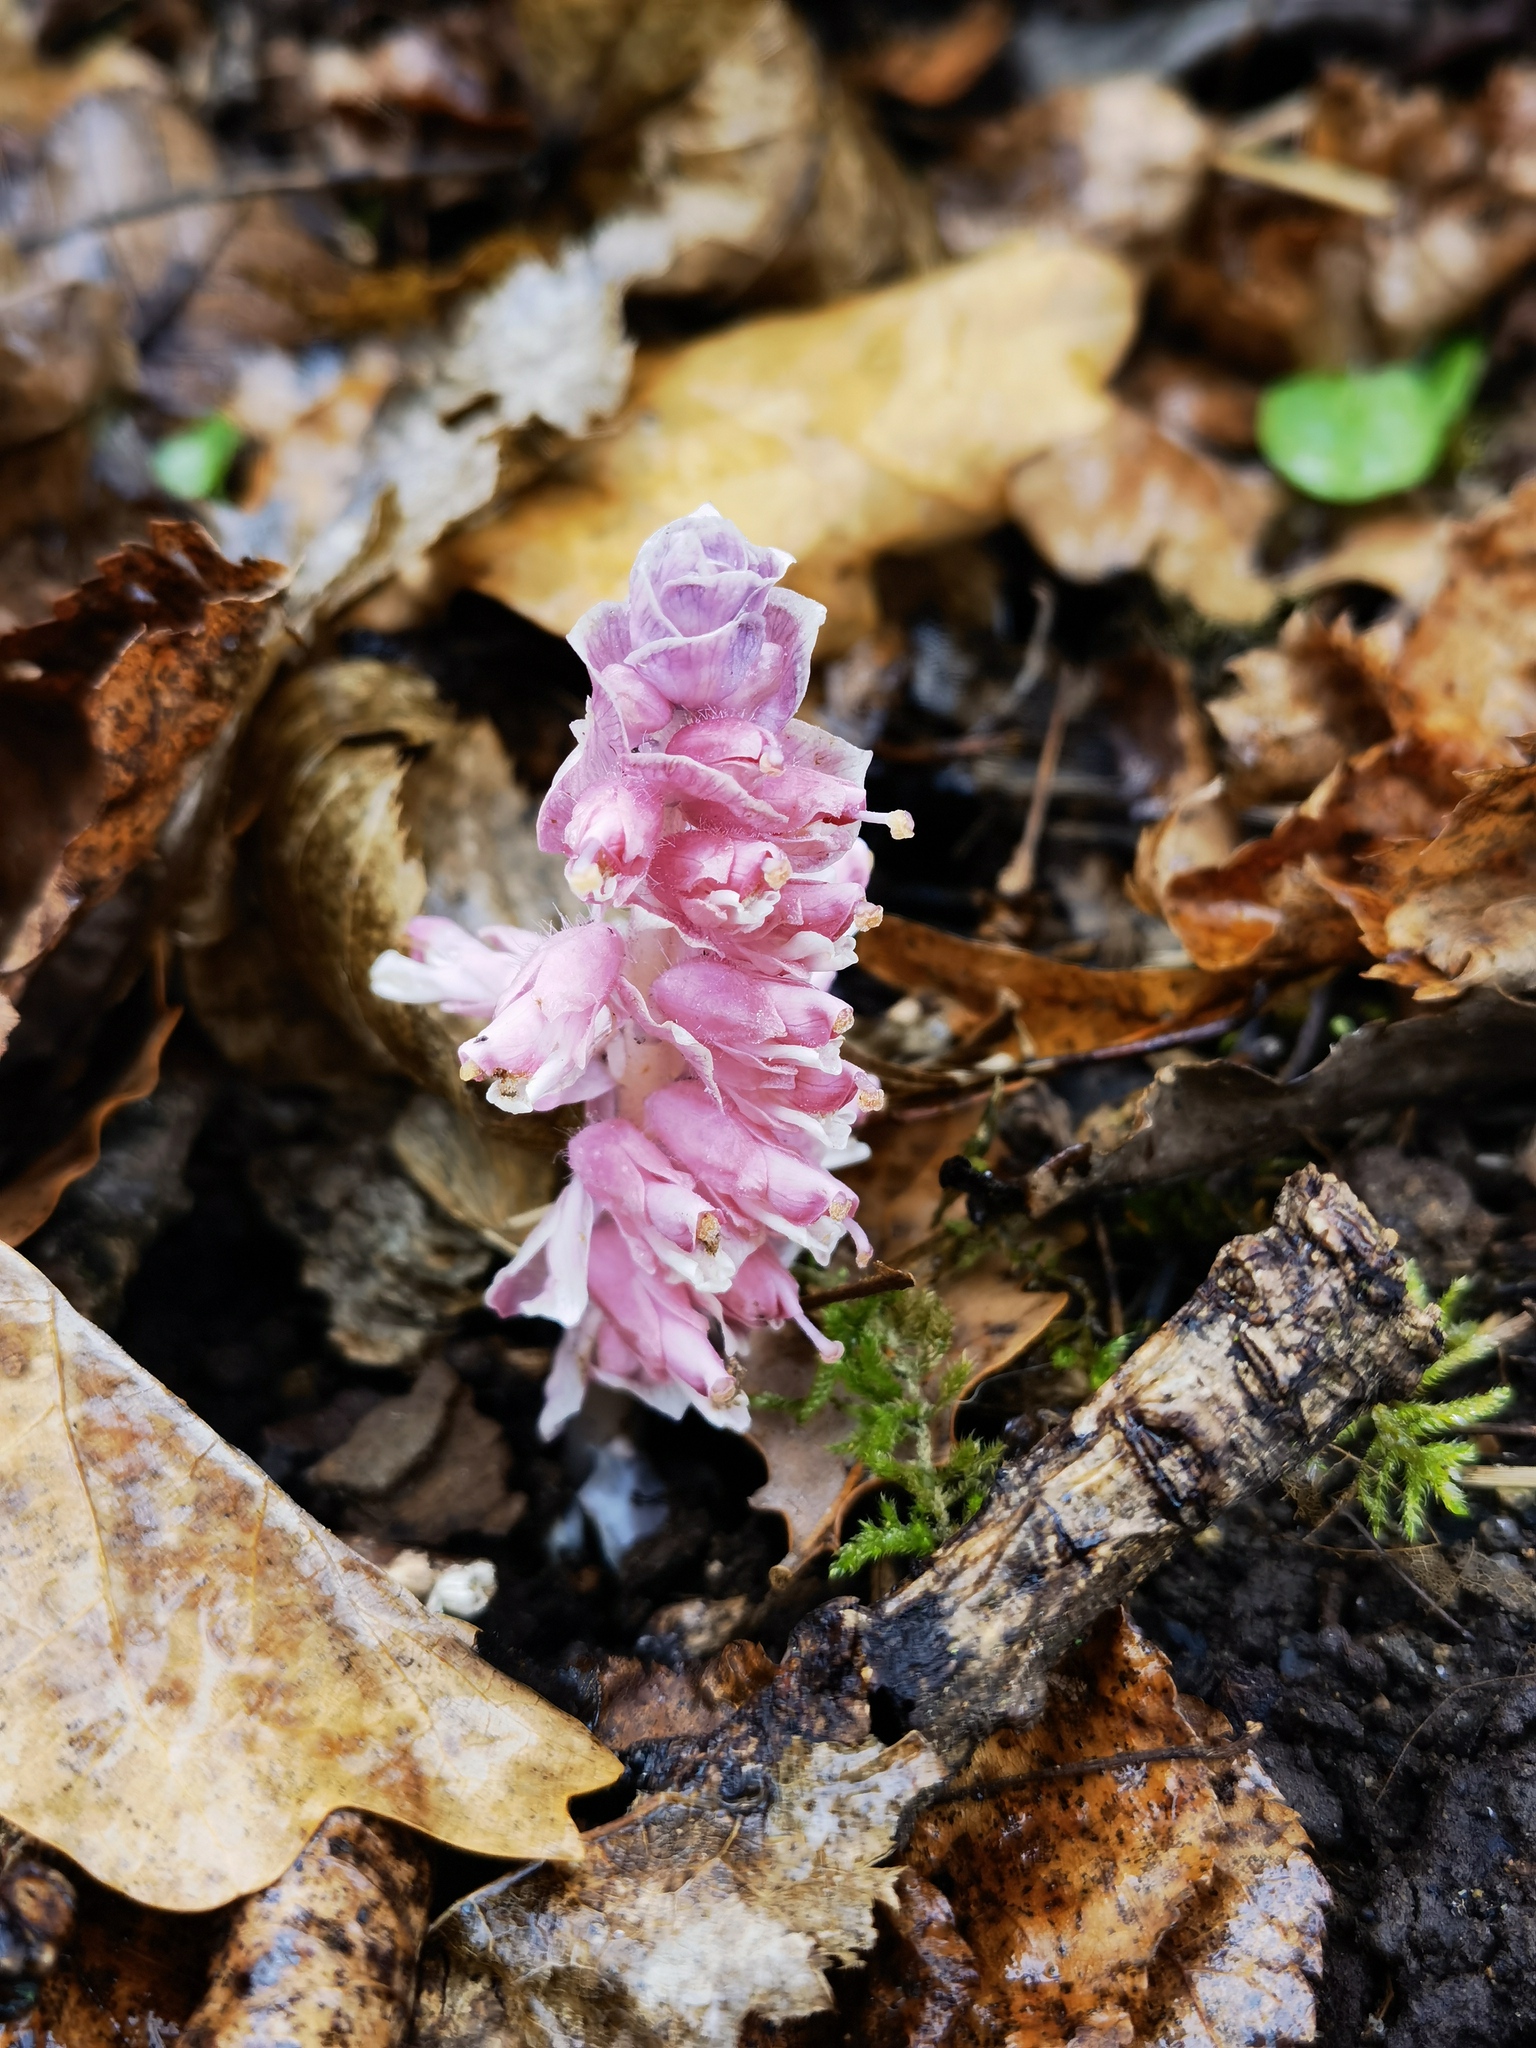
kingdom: Plantae
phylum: Tracheophyta
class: Magnoliopsida
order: Lamiales
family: Orobanchaceae
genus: Lathraea
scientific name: Lathraea squamaria
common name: Toothwort
